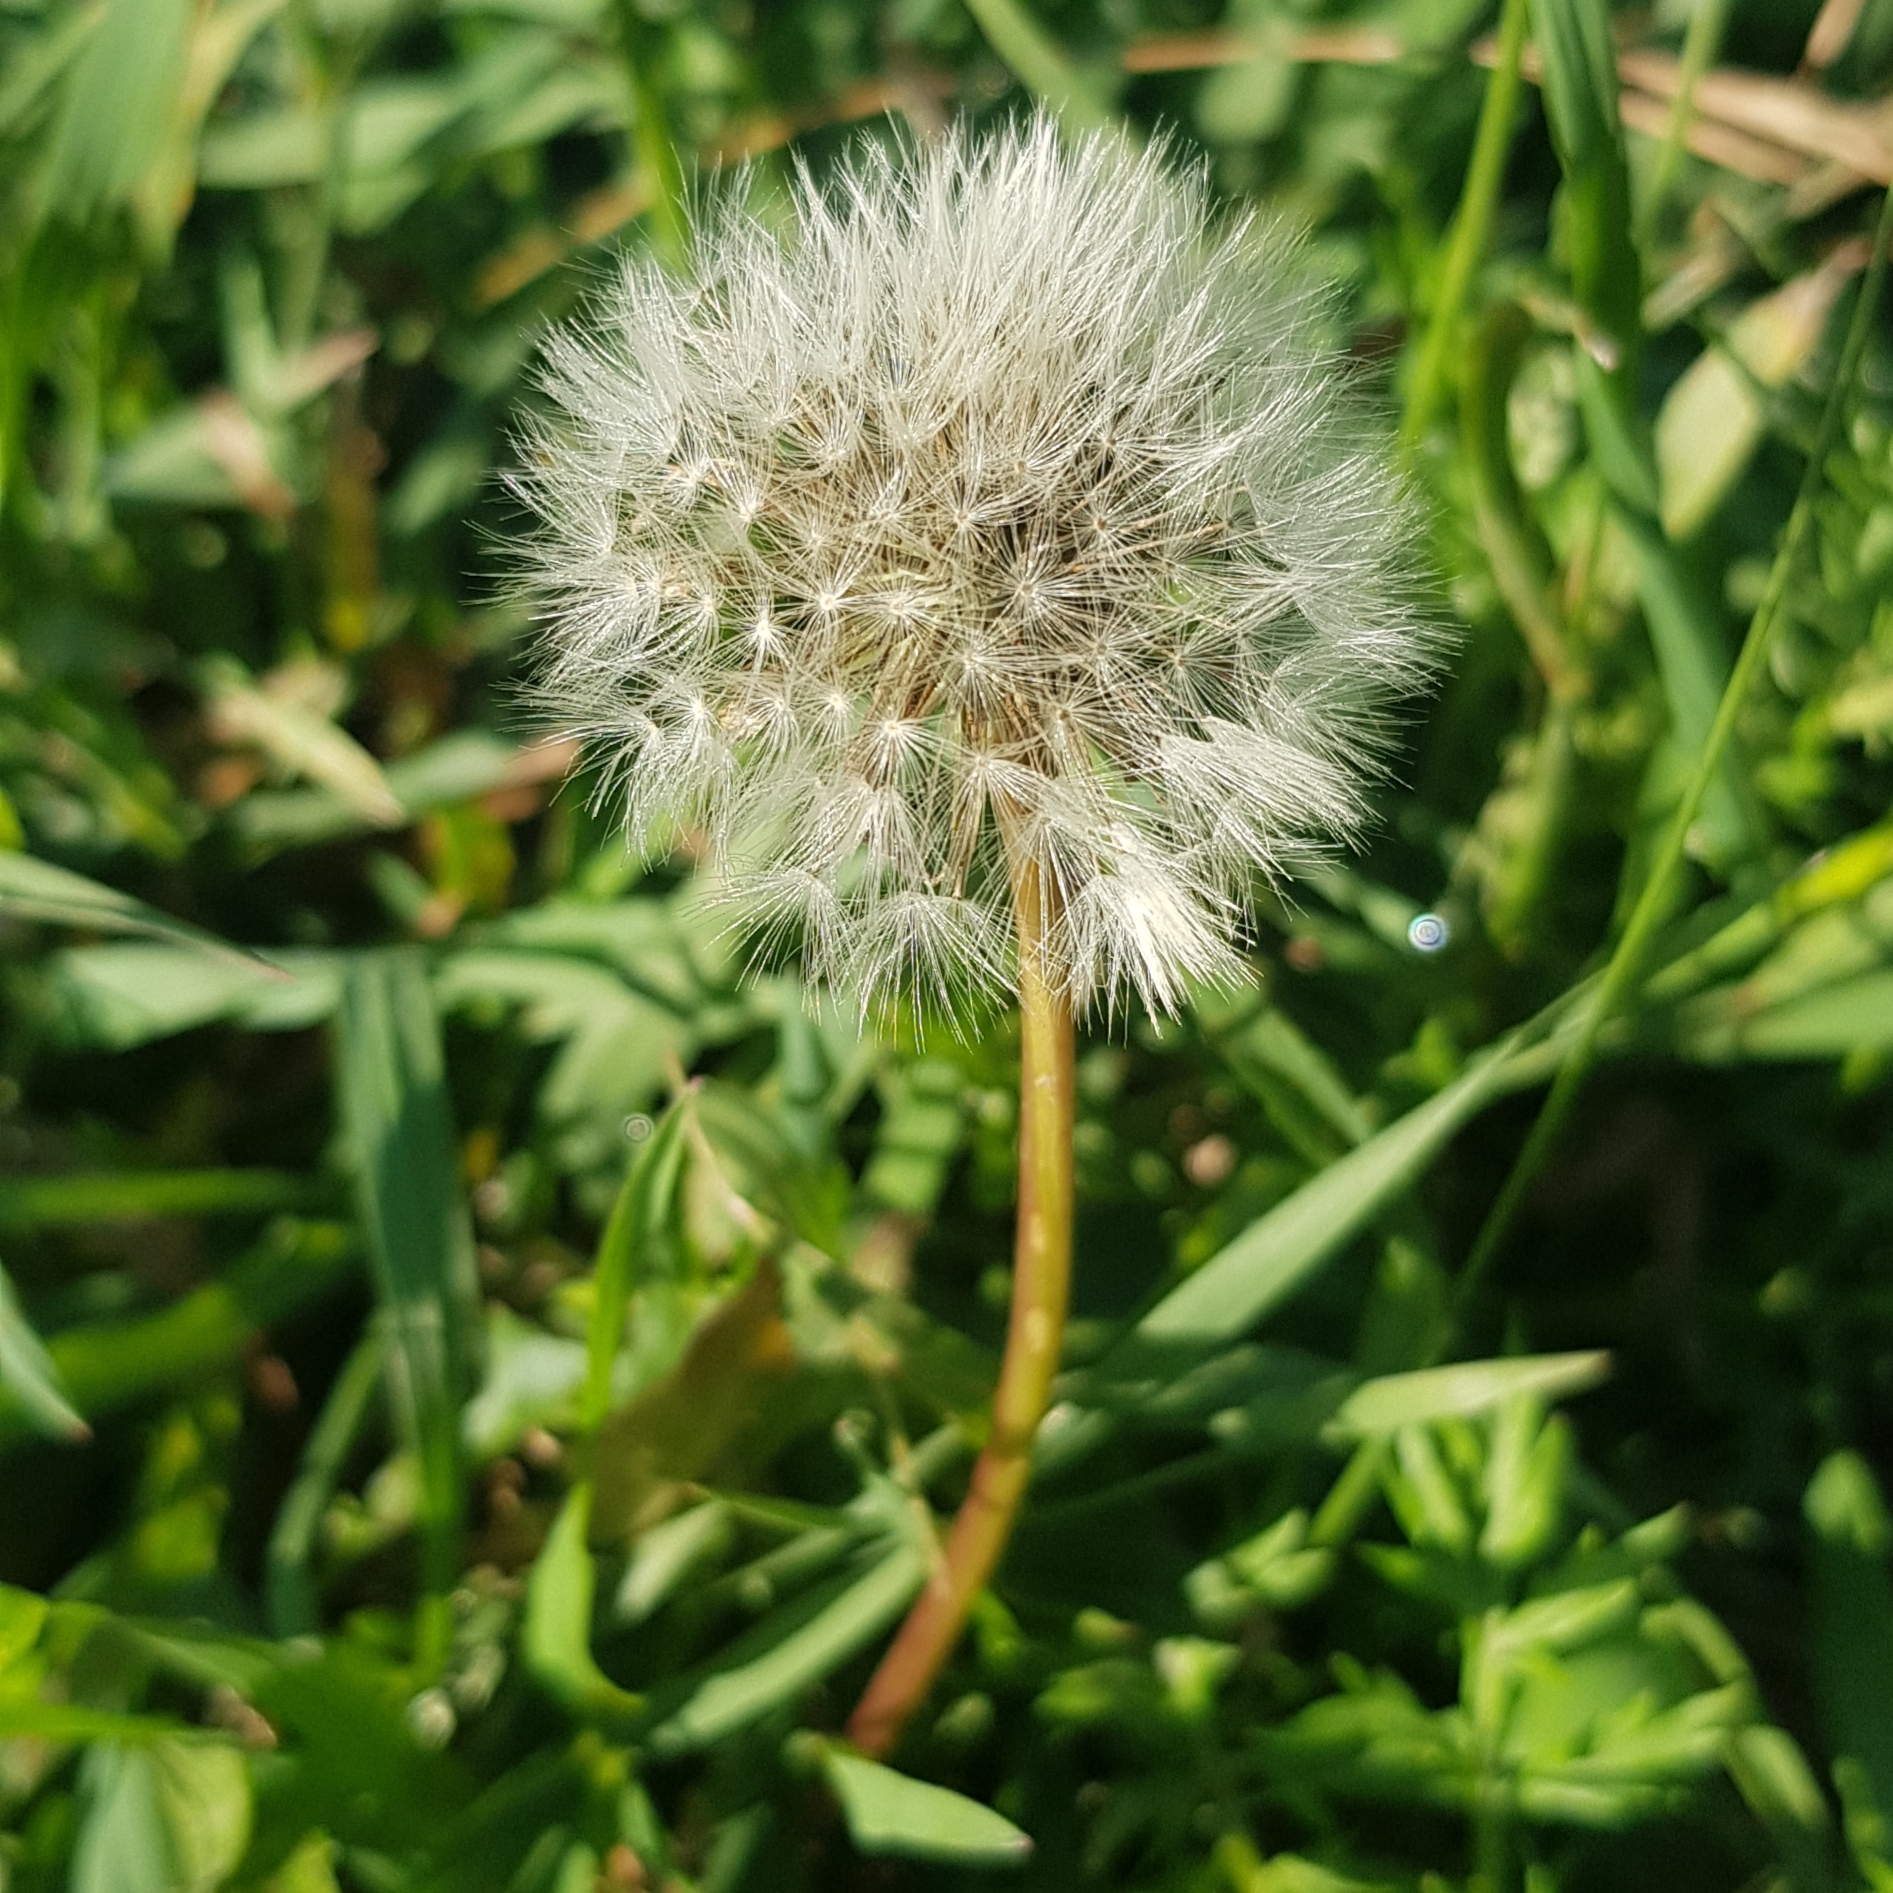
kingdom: Plantae
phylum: Tracheophyta
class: Magnoliopsida
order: Asterales
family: Asteraceae
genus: Taraxacum
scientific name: Taraxacum officinale
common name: Common dandelion
